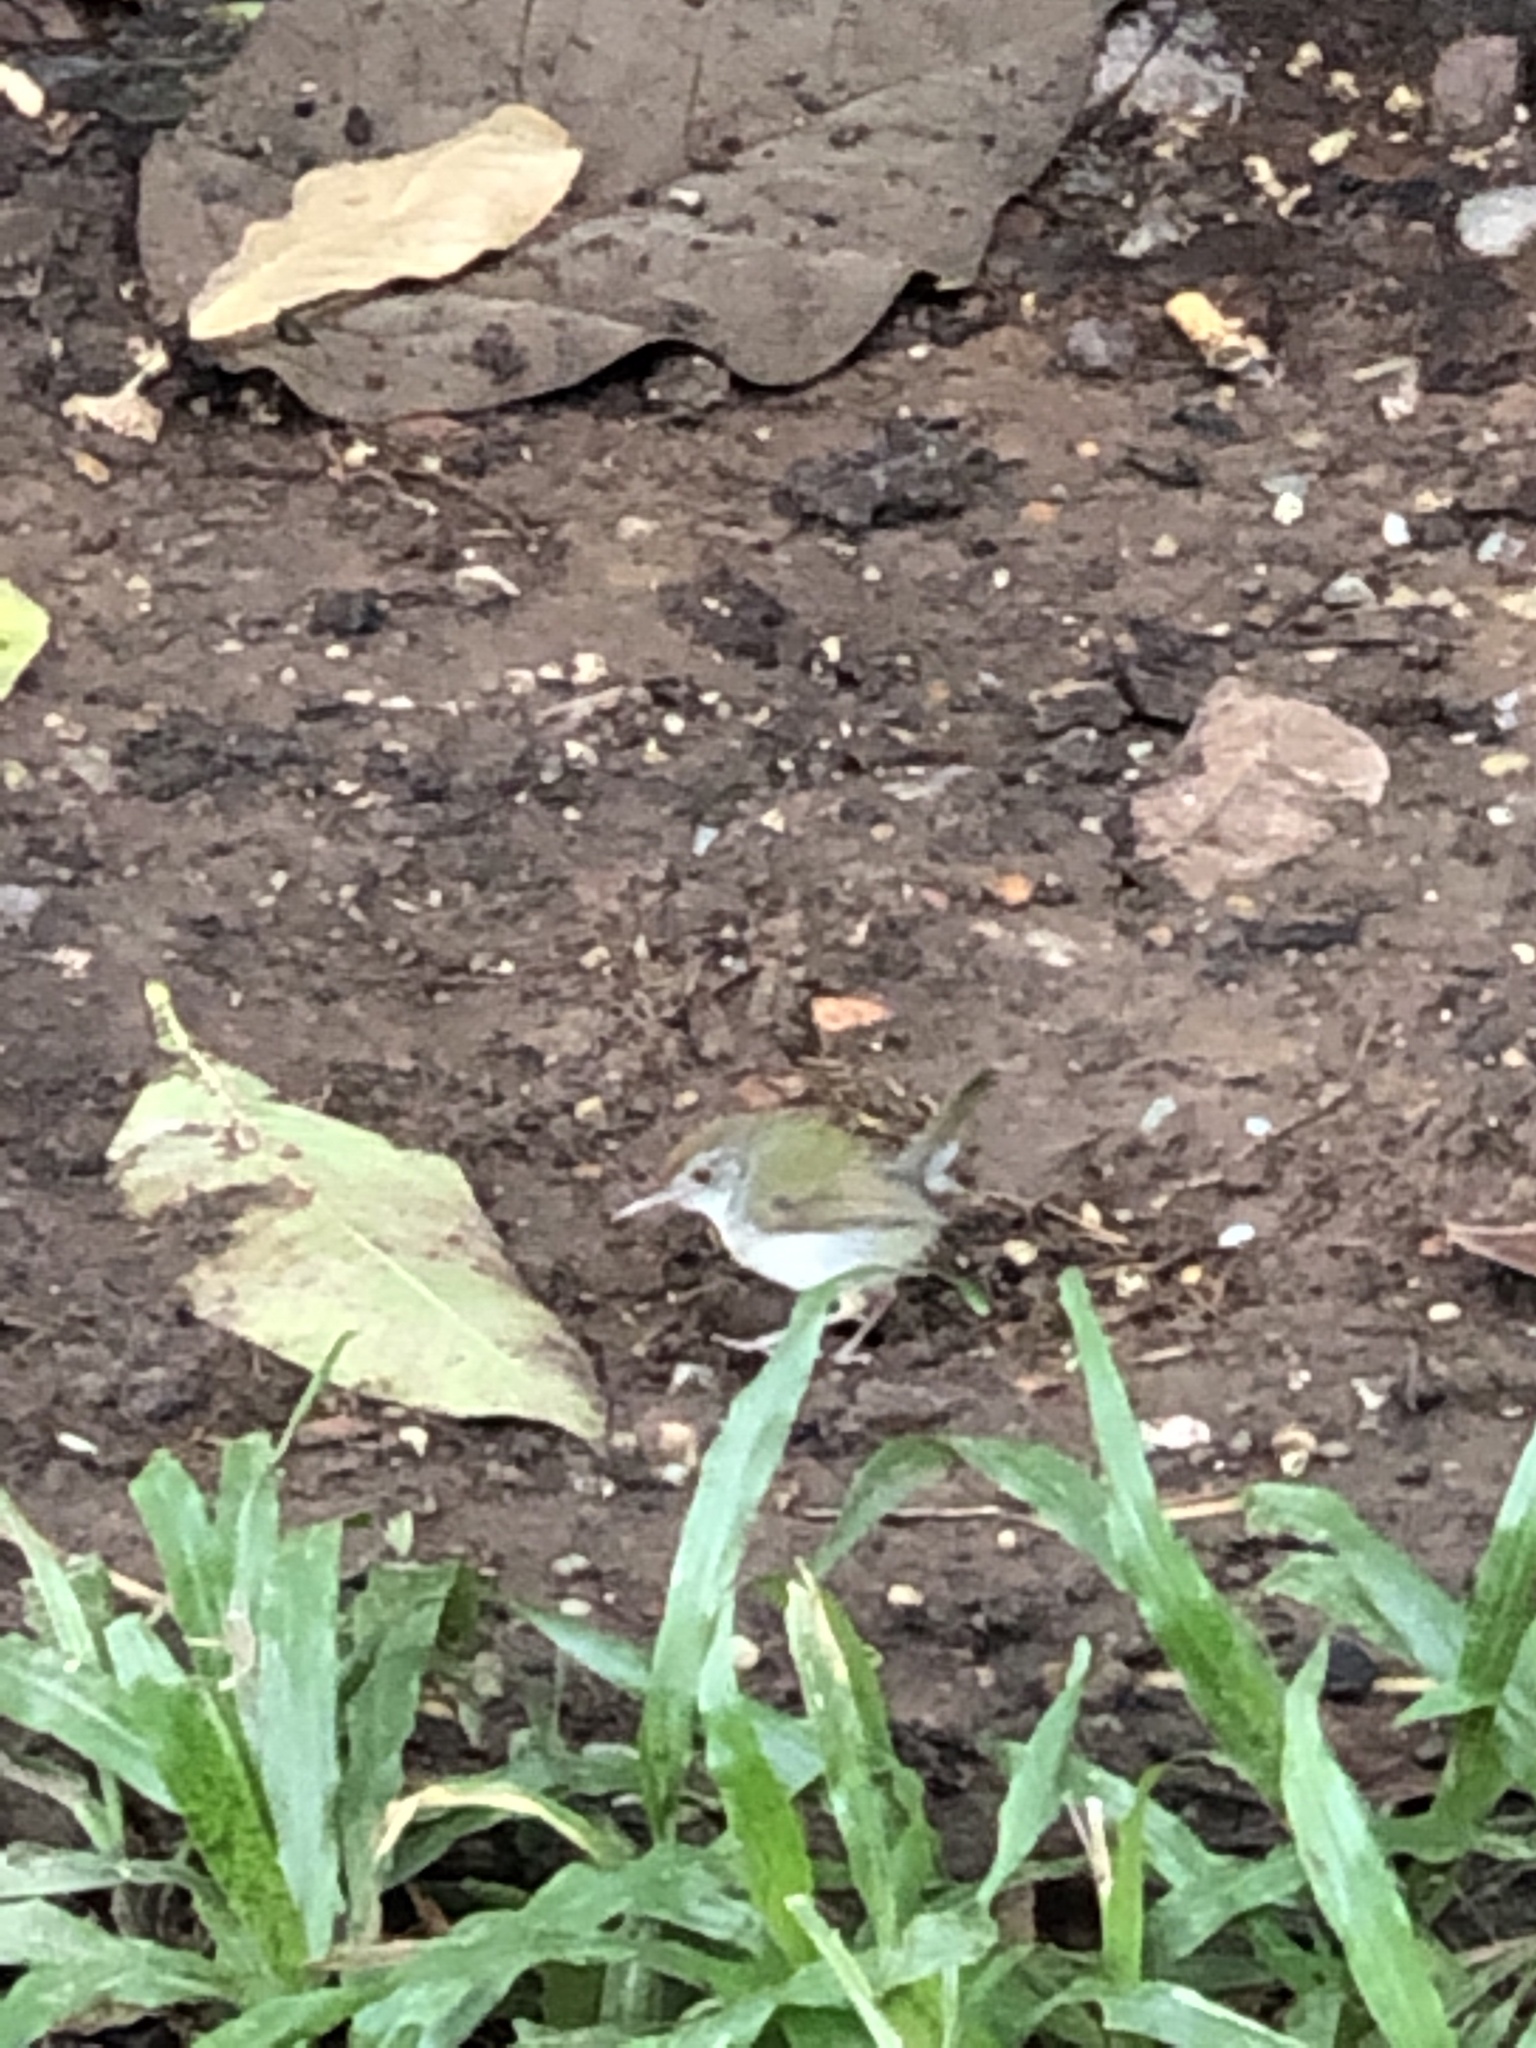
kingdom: Animalia
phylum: Chordata
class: Aves
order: Passeriformes
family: Cisticolidae
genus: Orthotomus
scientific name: Orthotomus sutorius
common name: Common tailorbird
